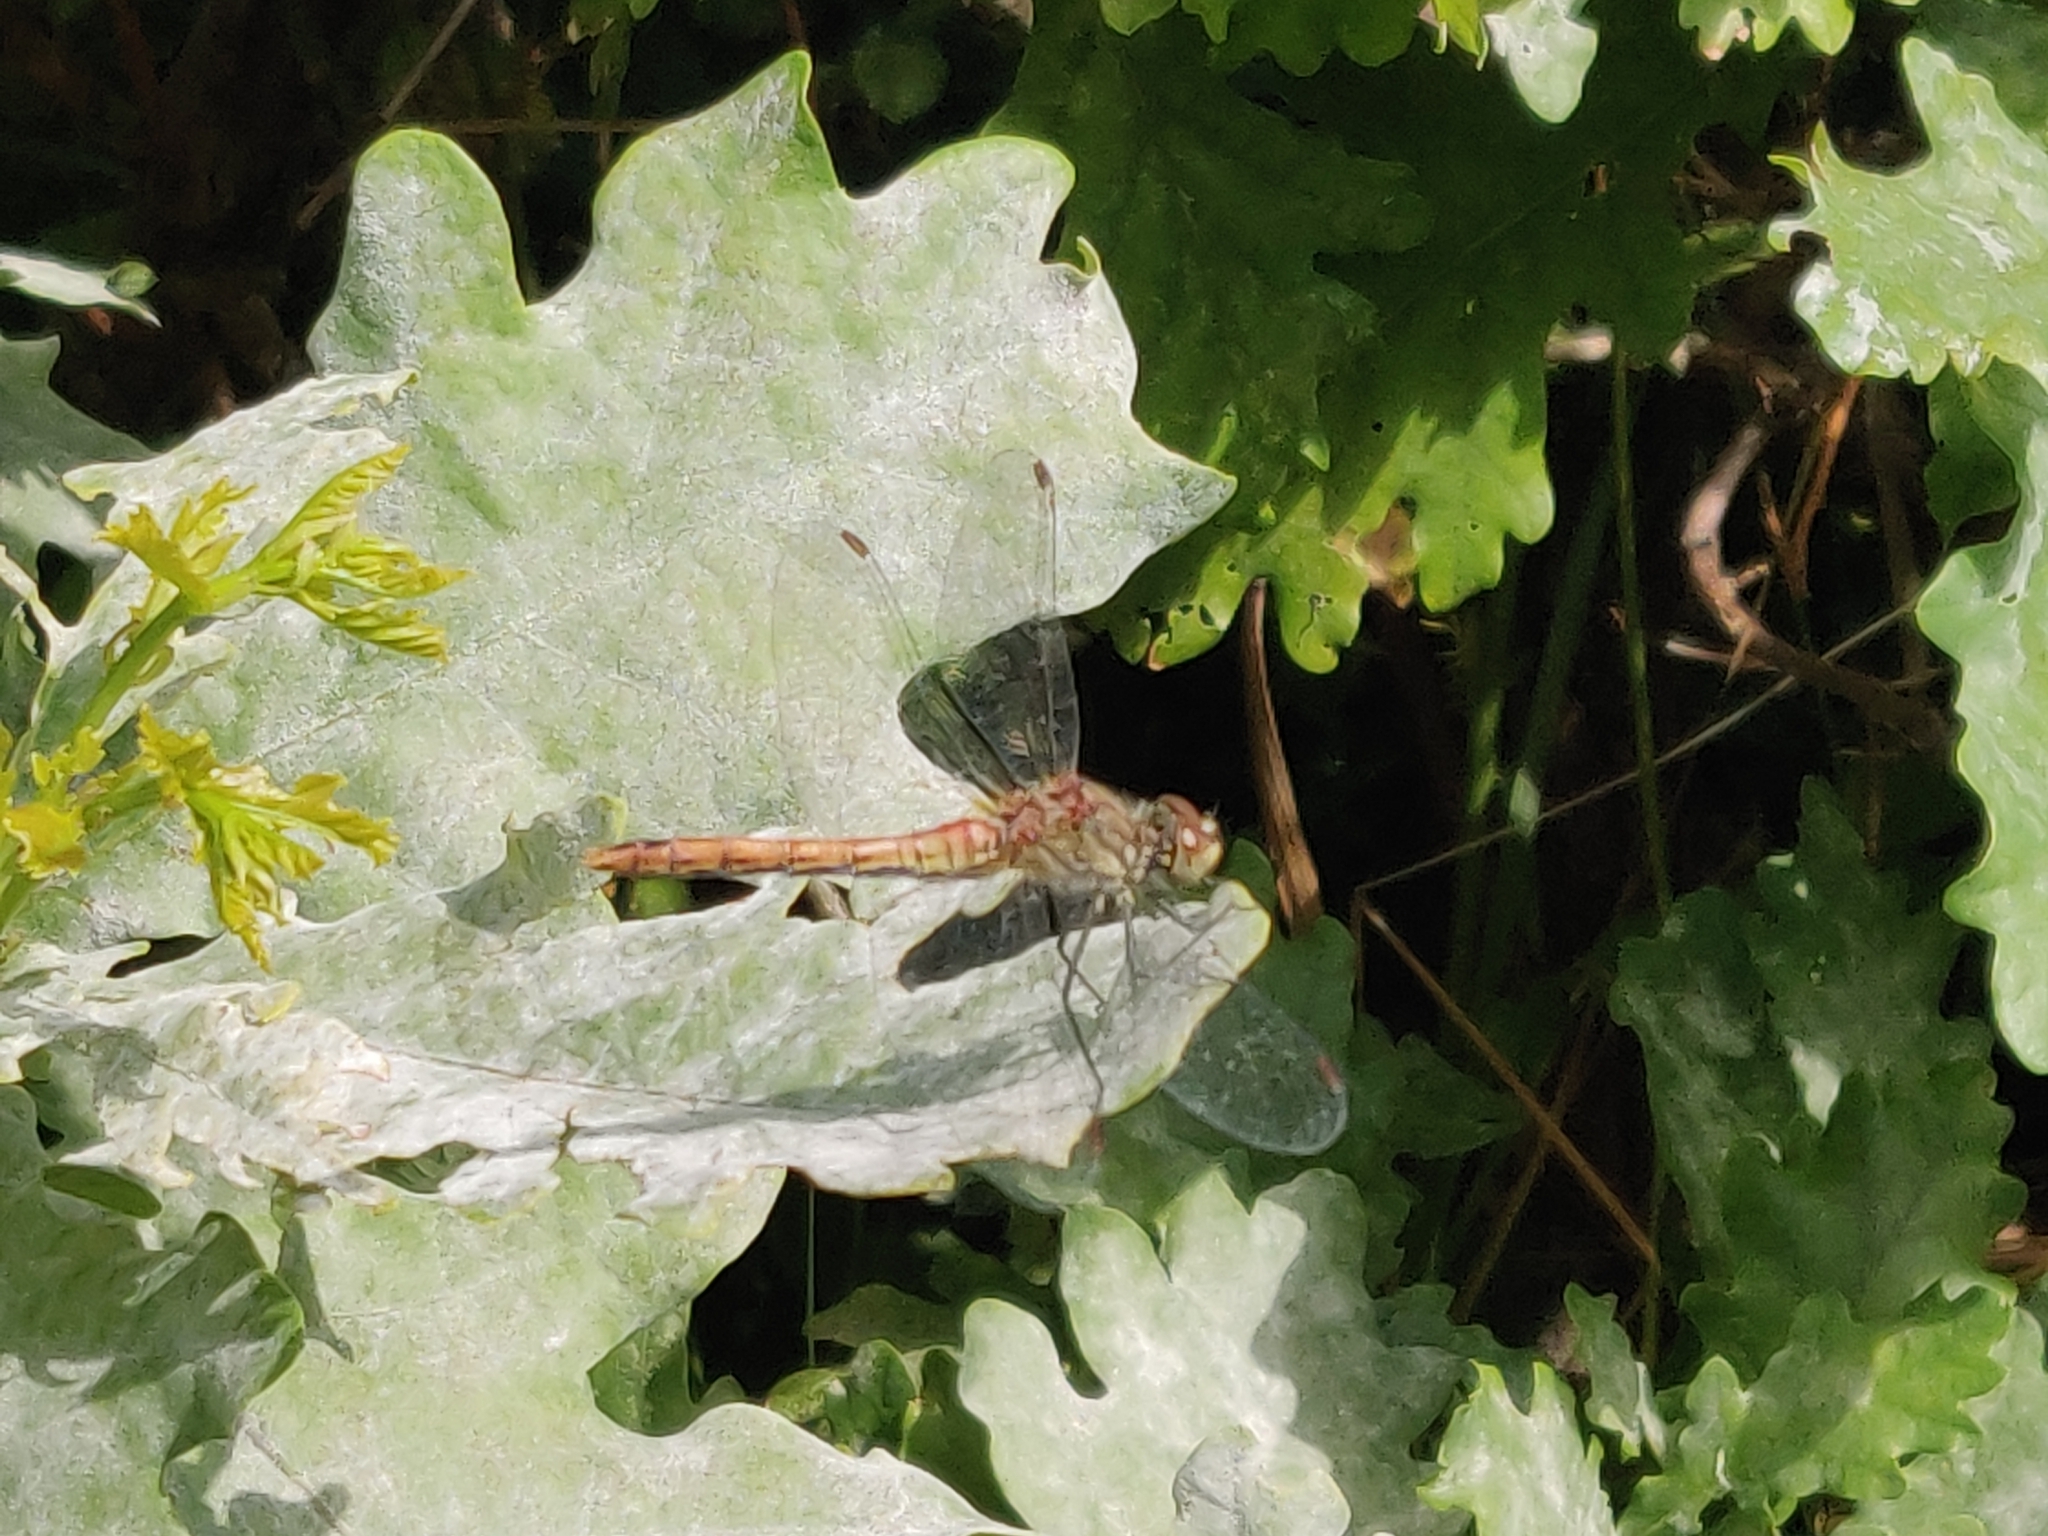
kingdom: Animalia
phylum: Arthropoda
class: Insecta
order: Odonata
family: Libellulidae
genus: Sympetrum
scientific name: Sympetrum sanguineum
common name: Ruddy darter
